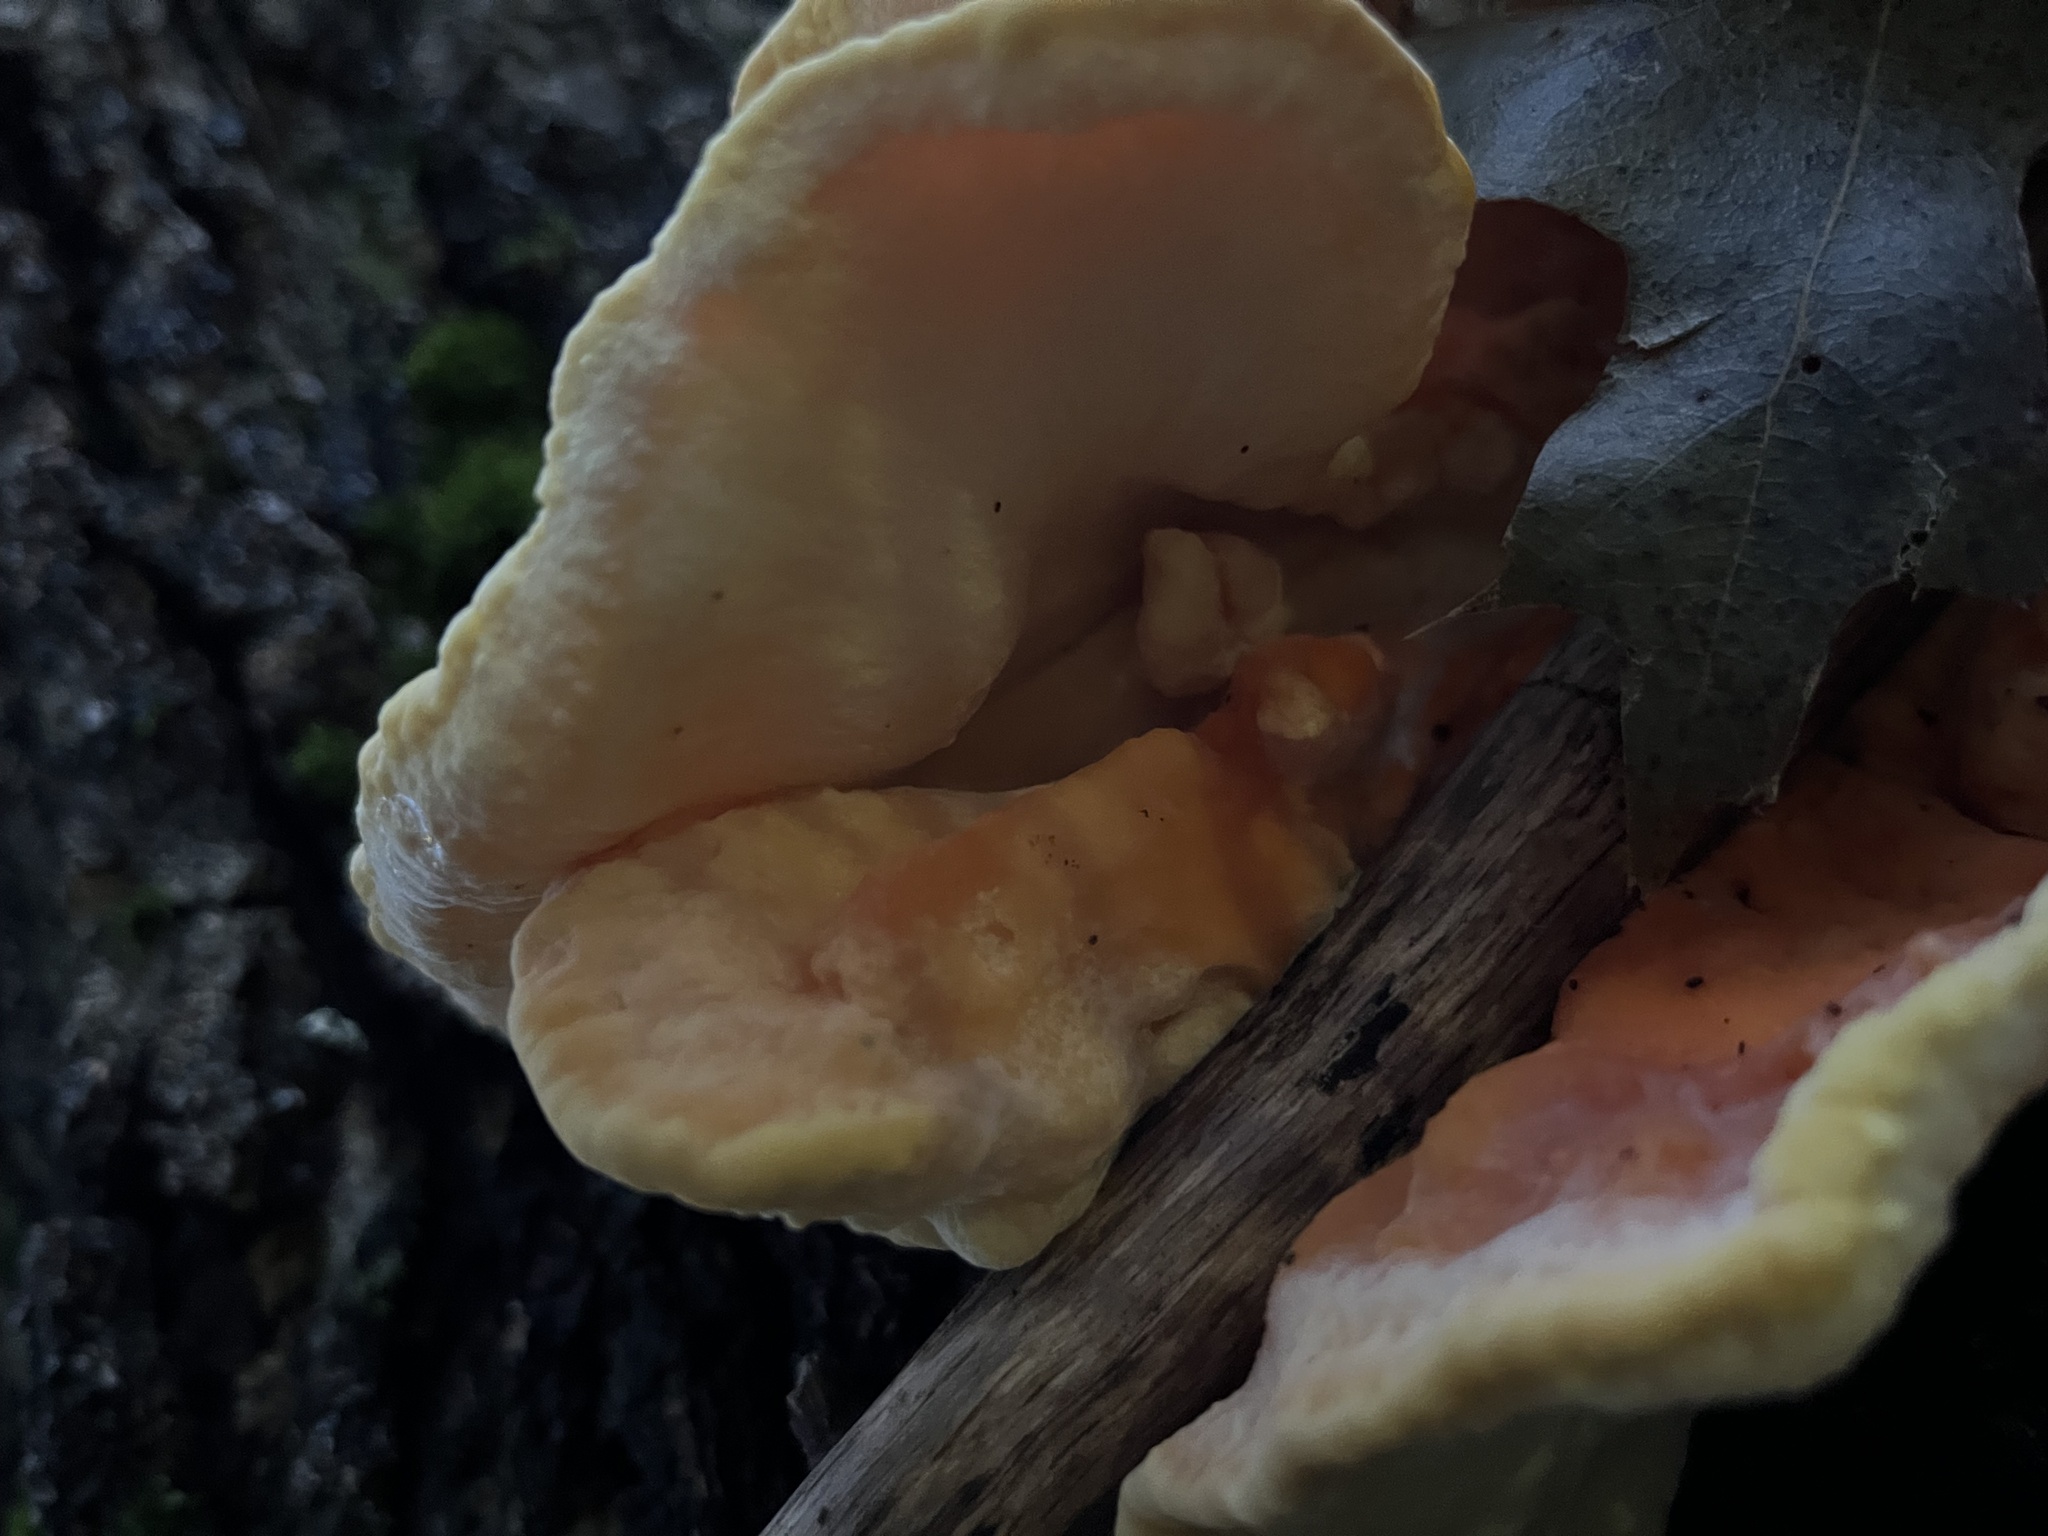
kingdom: Fungi
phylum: Basidiomycota
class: Agaricomycetes
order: Polyporales
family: Laetiporaceae
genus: Laetiporus
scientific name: Laetiporus sulphureus
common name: Chicken of the woods
